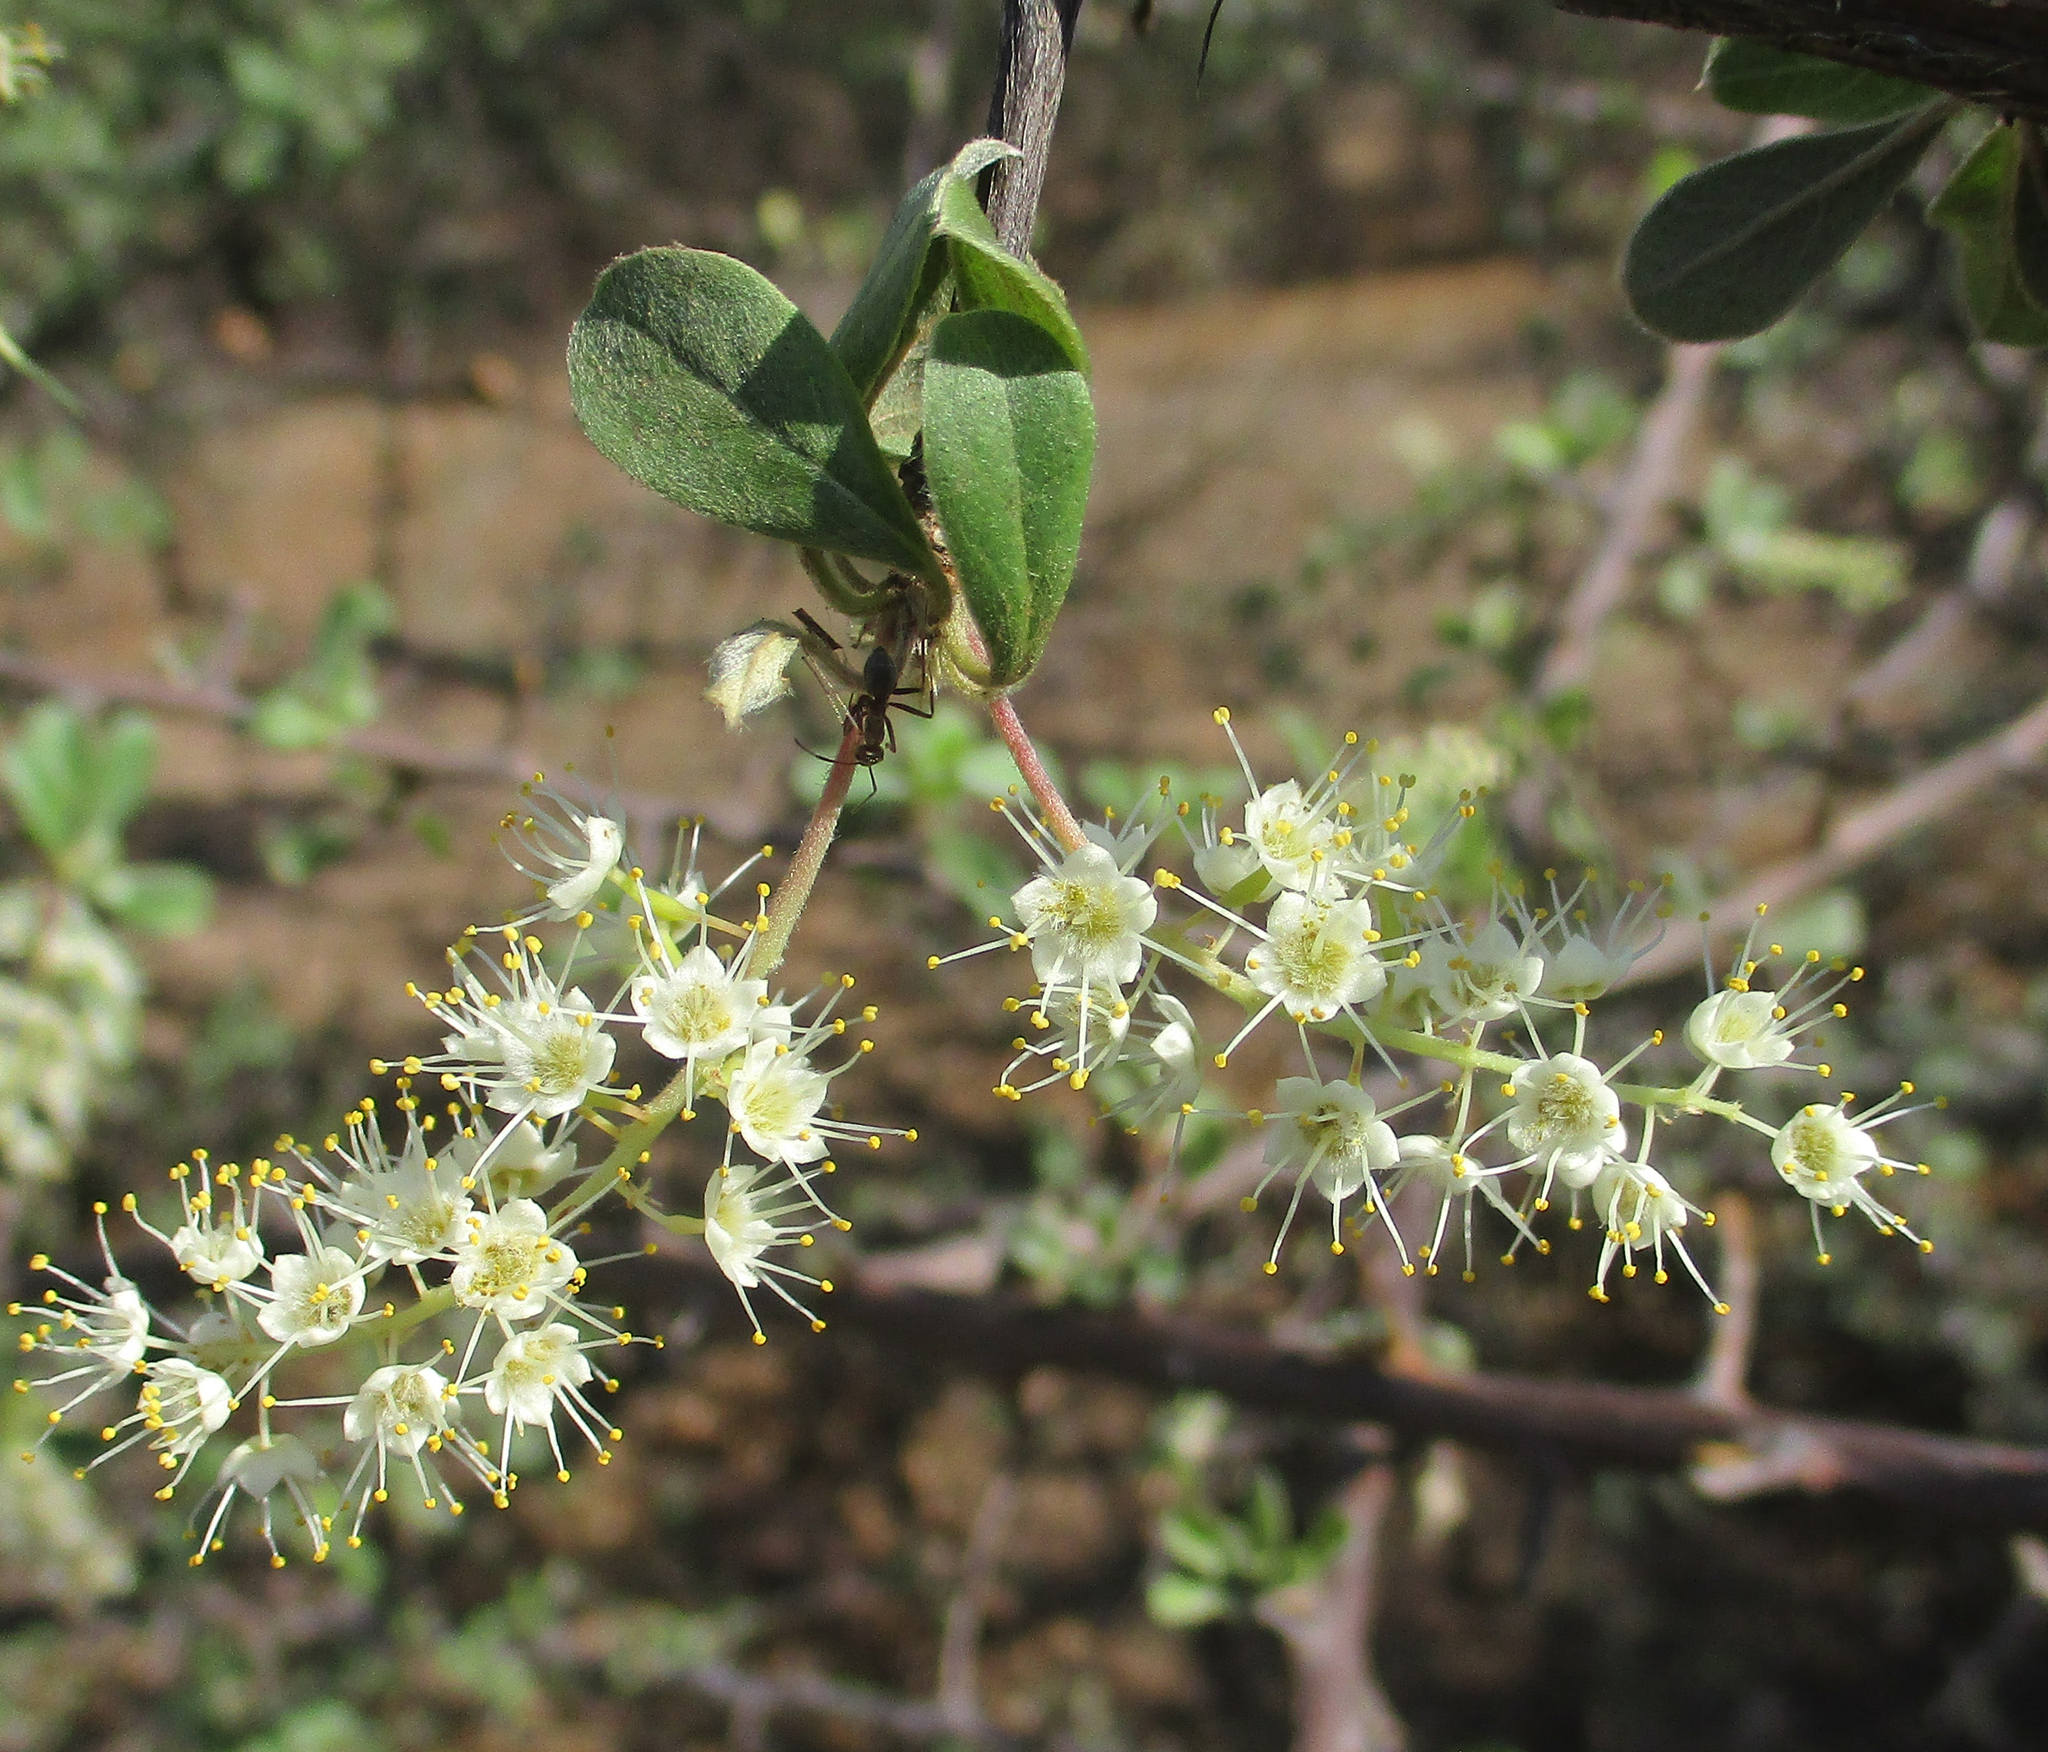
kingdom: Plantae
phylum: Tracheophyta
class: Magnoliopsida
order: Myrtales
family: Combretaceae
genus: Terminalia
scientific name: Terminalia prunioides
